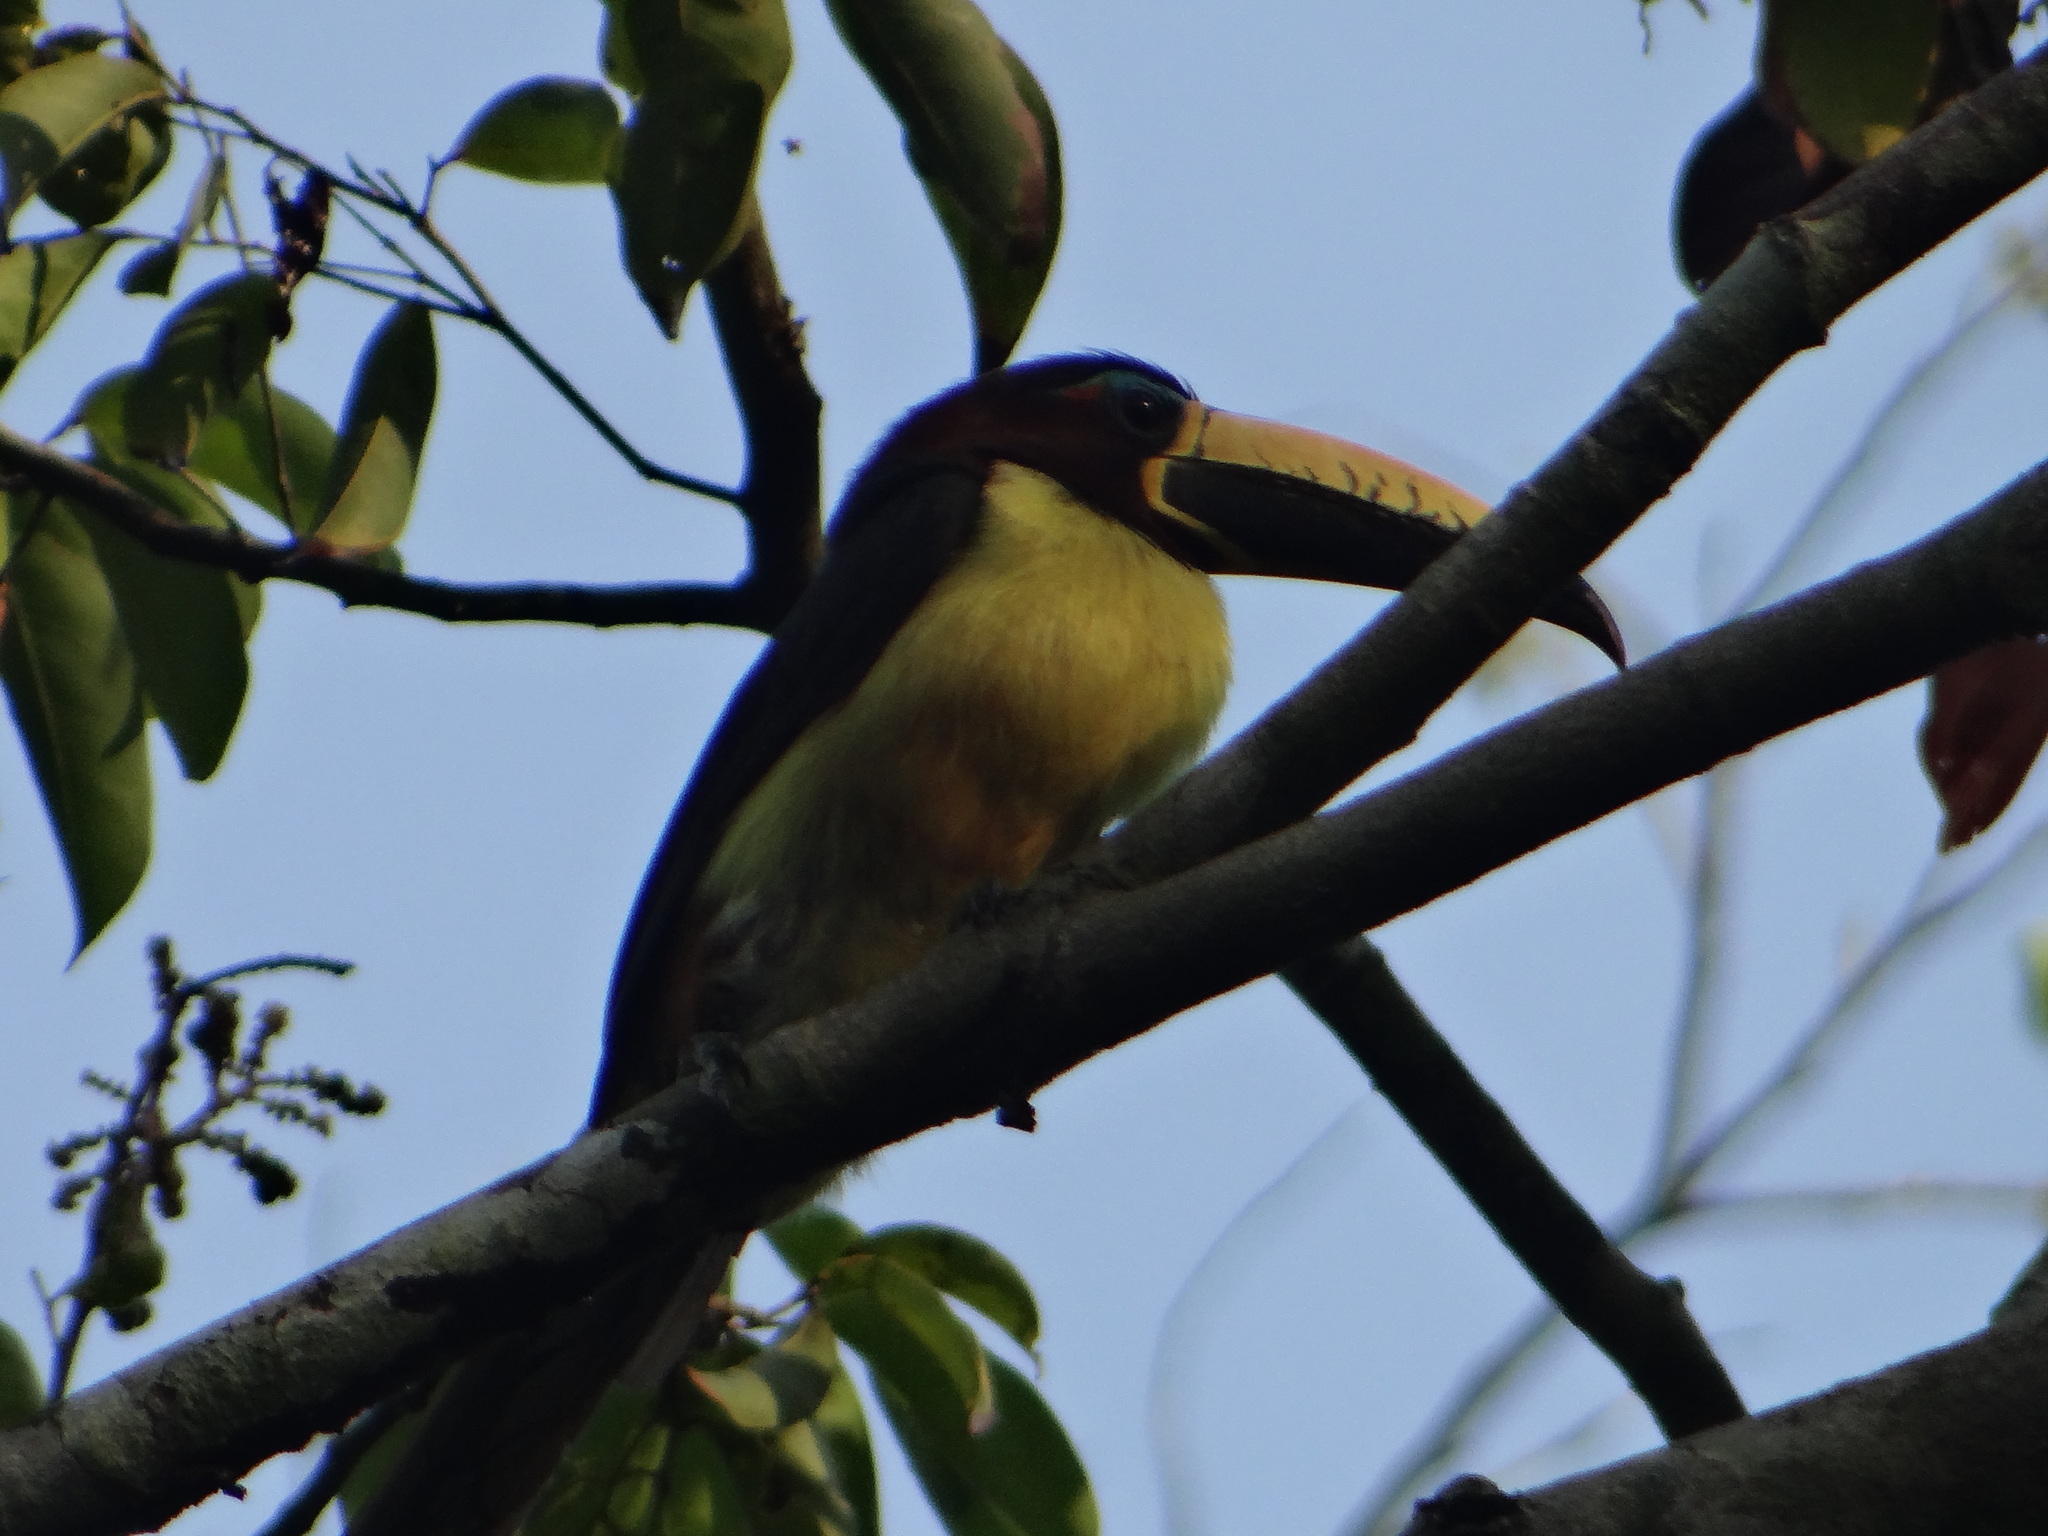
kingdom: Animalia
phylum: Chordata
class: Aves
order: Piciformes
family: Ramphastidae
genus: Pteroglossus
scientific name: Pteroglossus inscriptus
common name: Lettered aracari
